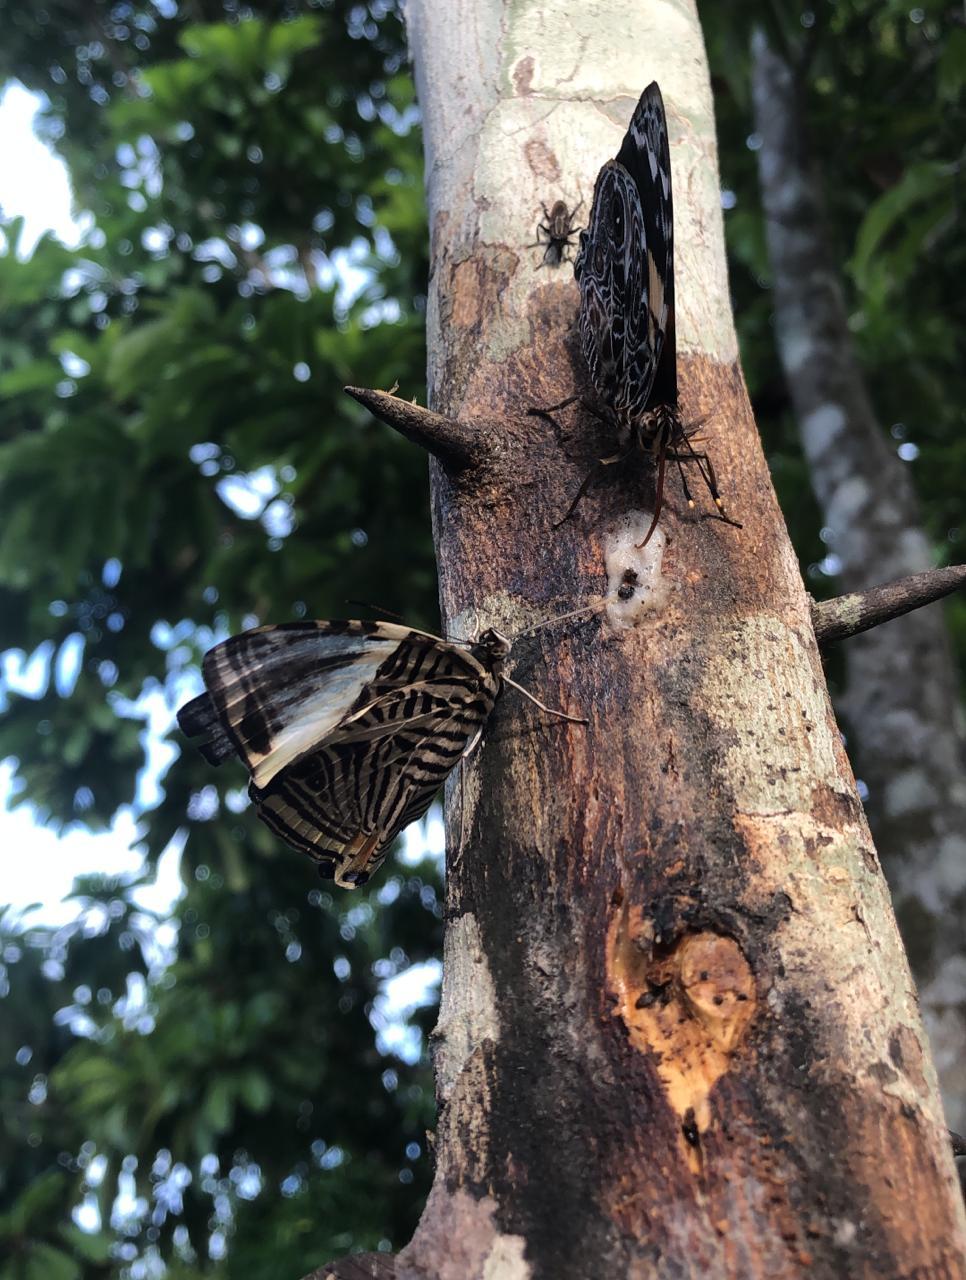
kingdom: Animalia
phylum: Arthropoda
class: Insecta
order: Lepidoptera
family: Nymphalidae
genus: Colobura
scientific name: Colobura dirce
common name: Dirce beauty
